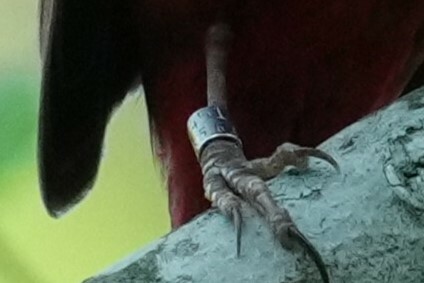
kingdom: Animalia
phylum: Chordata
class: Aves
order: Passeriformes
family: Cardinalidae
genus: Cardinalis
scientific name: Cardinalis cardinalis
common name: Northern cardinal
